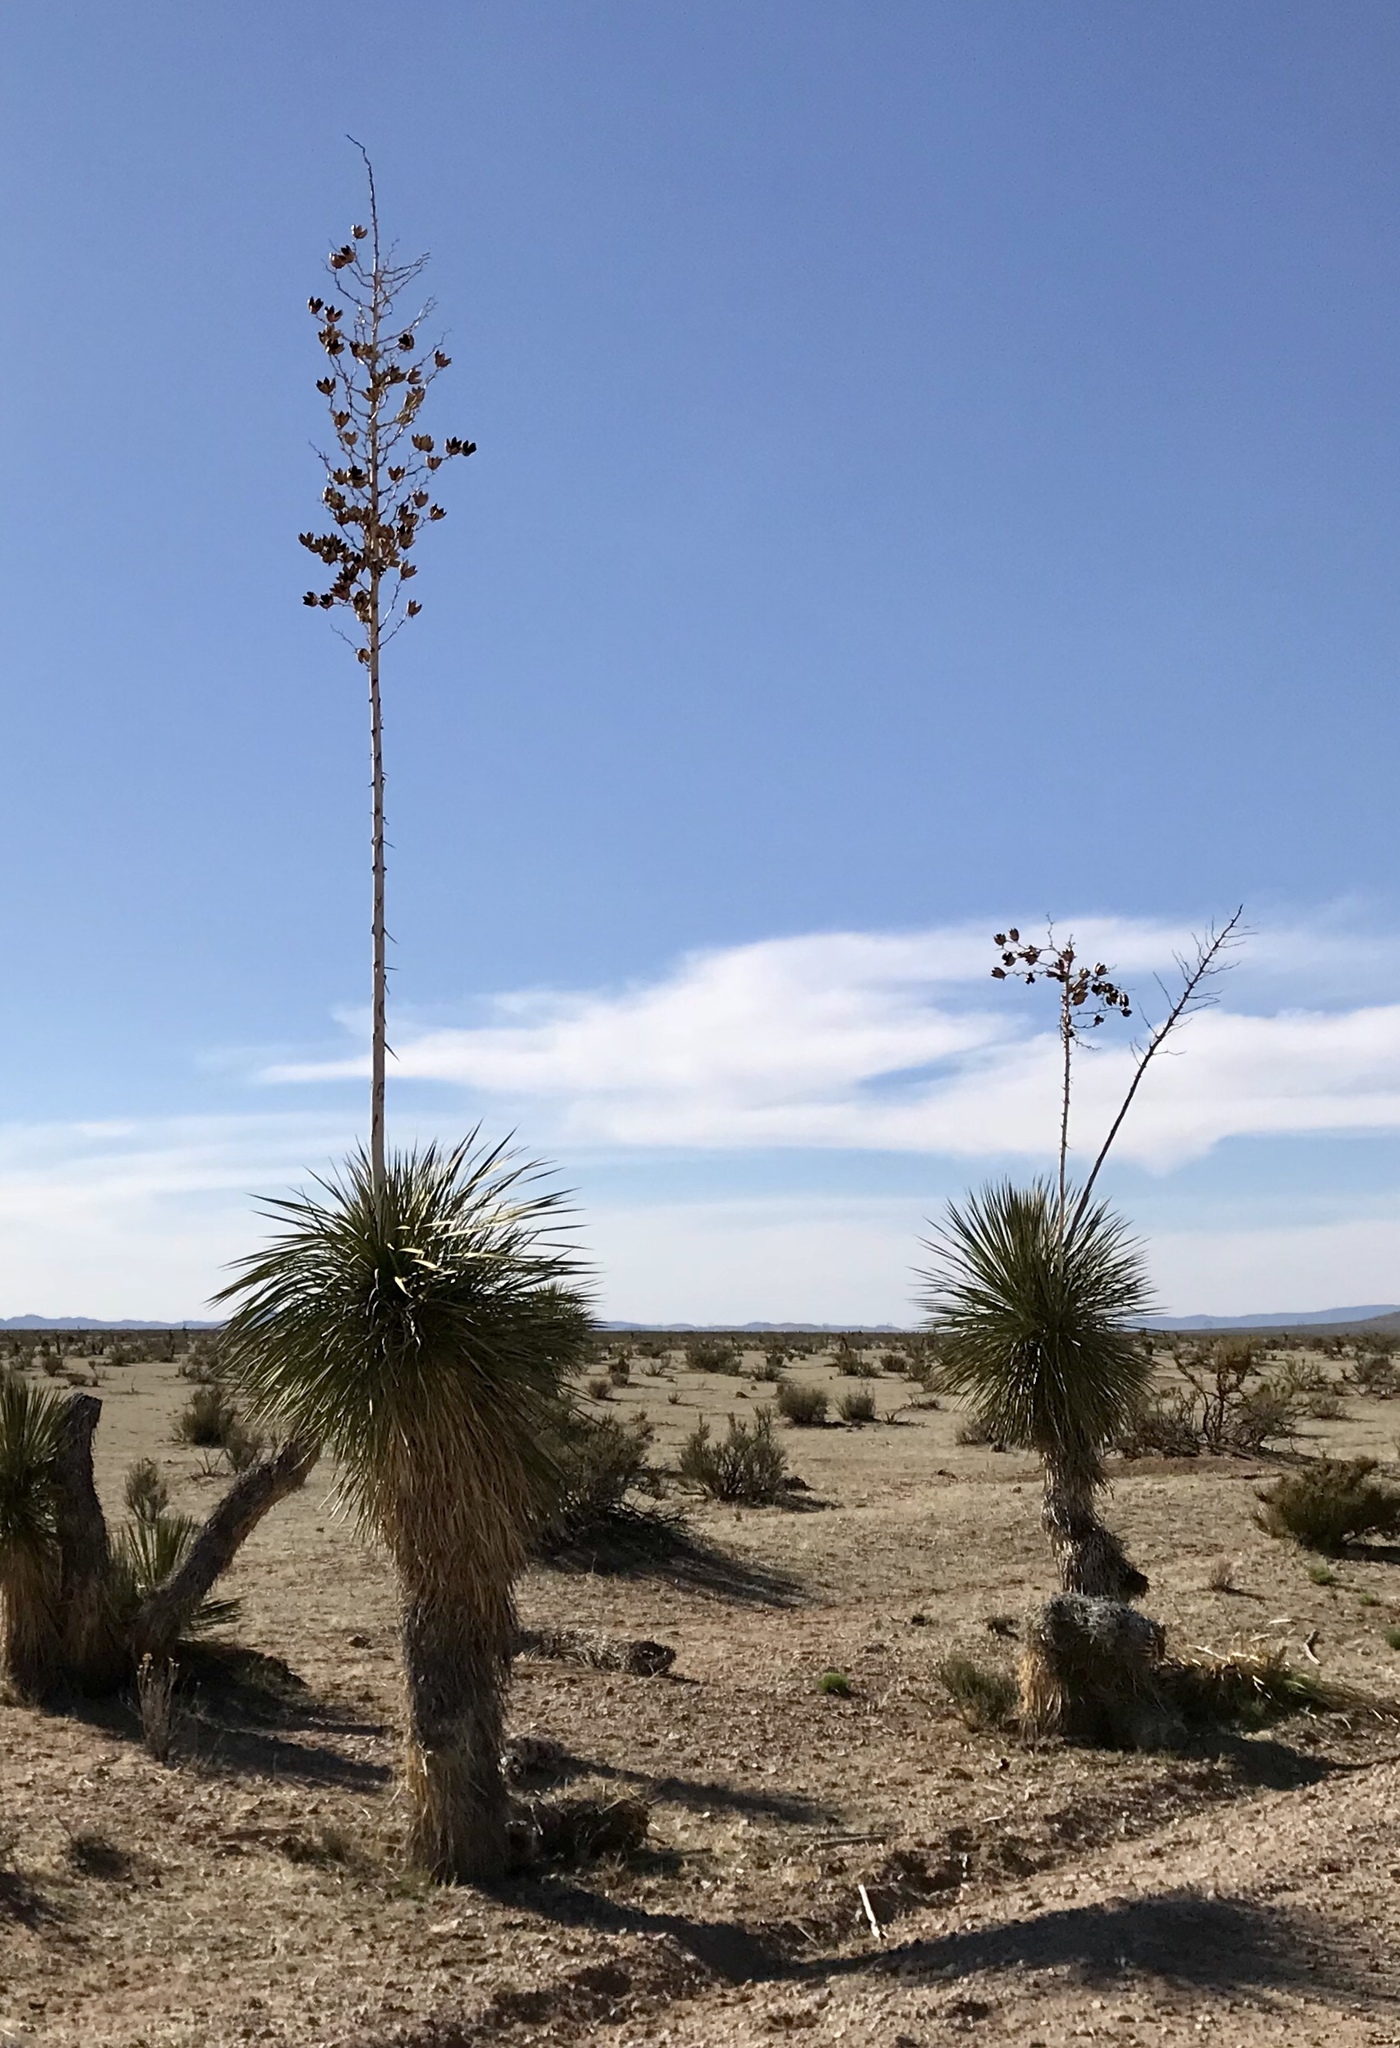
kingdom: Plantae
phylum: Tracheophyta
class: Liliopsida
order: Asparagales
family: Asparagaceae
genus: Yucca
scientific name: Yucca elata
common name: Palmella
